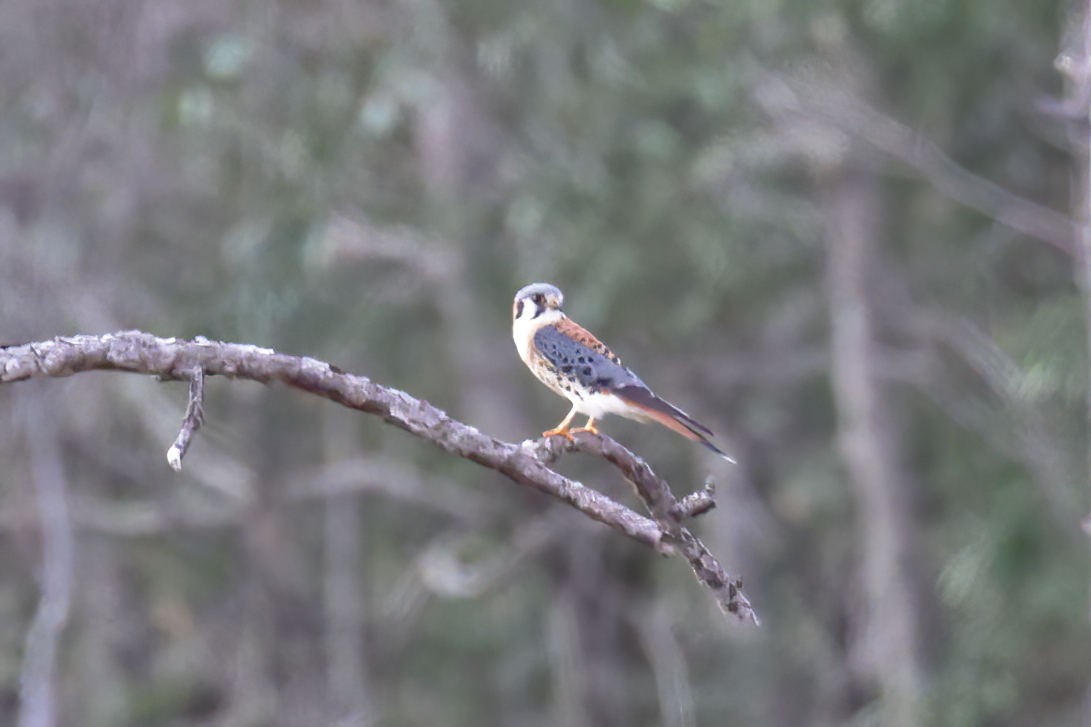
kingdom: Animalia
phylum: Chordata
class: Aves
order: Falconiformes
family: Falconidae
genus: Falco
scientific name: Falco sparverius
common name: American kestrel
